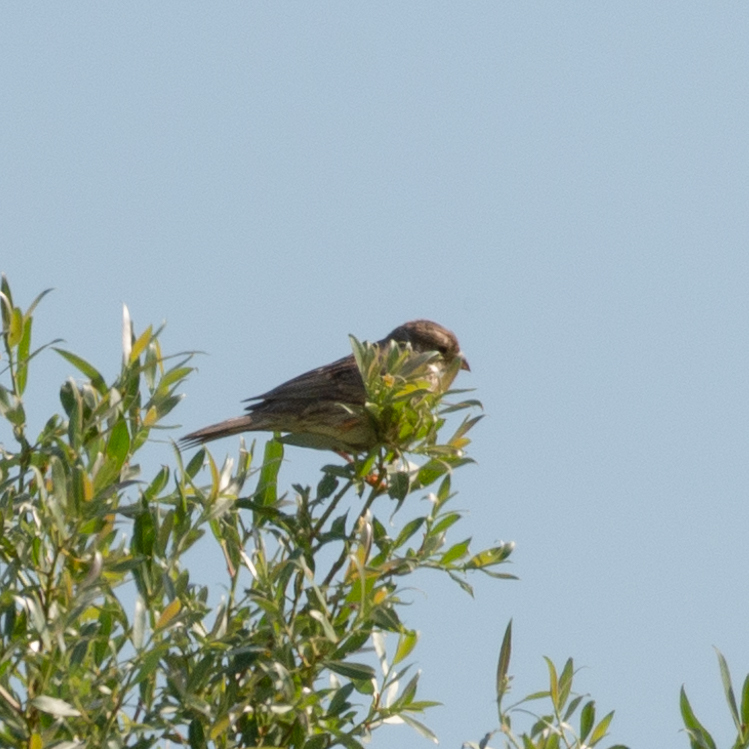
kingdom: Animalia
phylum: Chordata
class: Aves
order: Passeriformes
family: Emberizidae
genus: Emberiza
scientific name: Emberiza calandra
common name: Corn bunting
